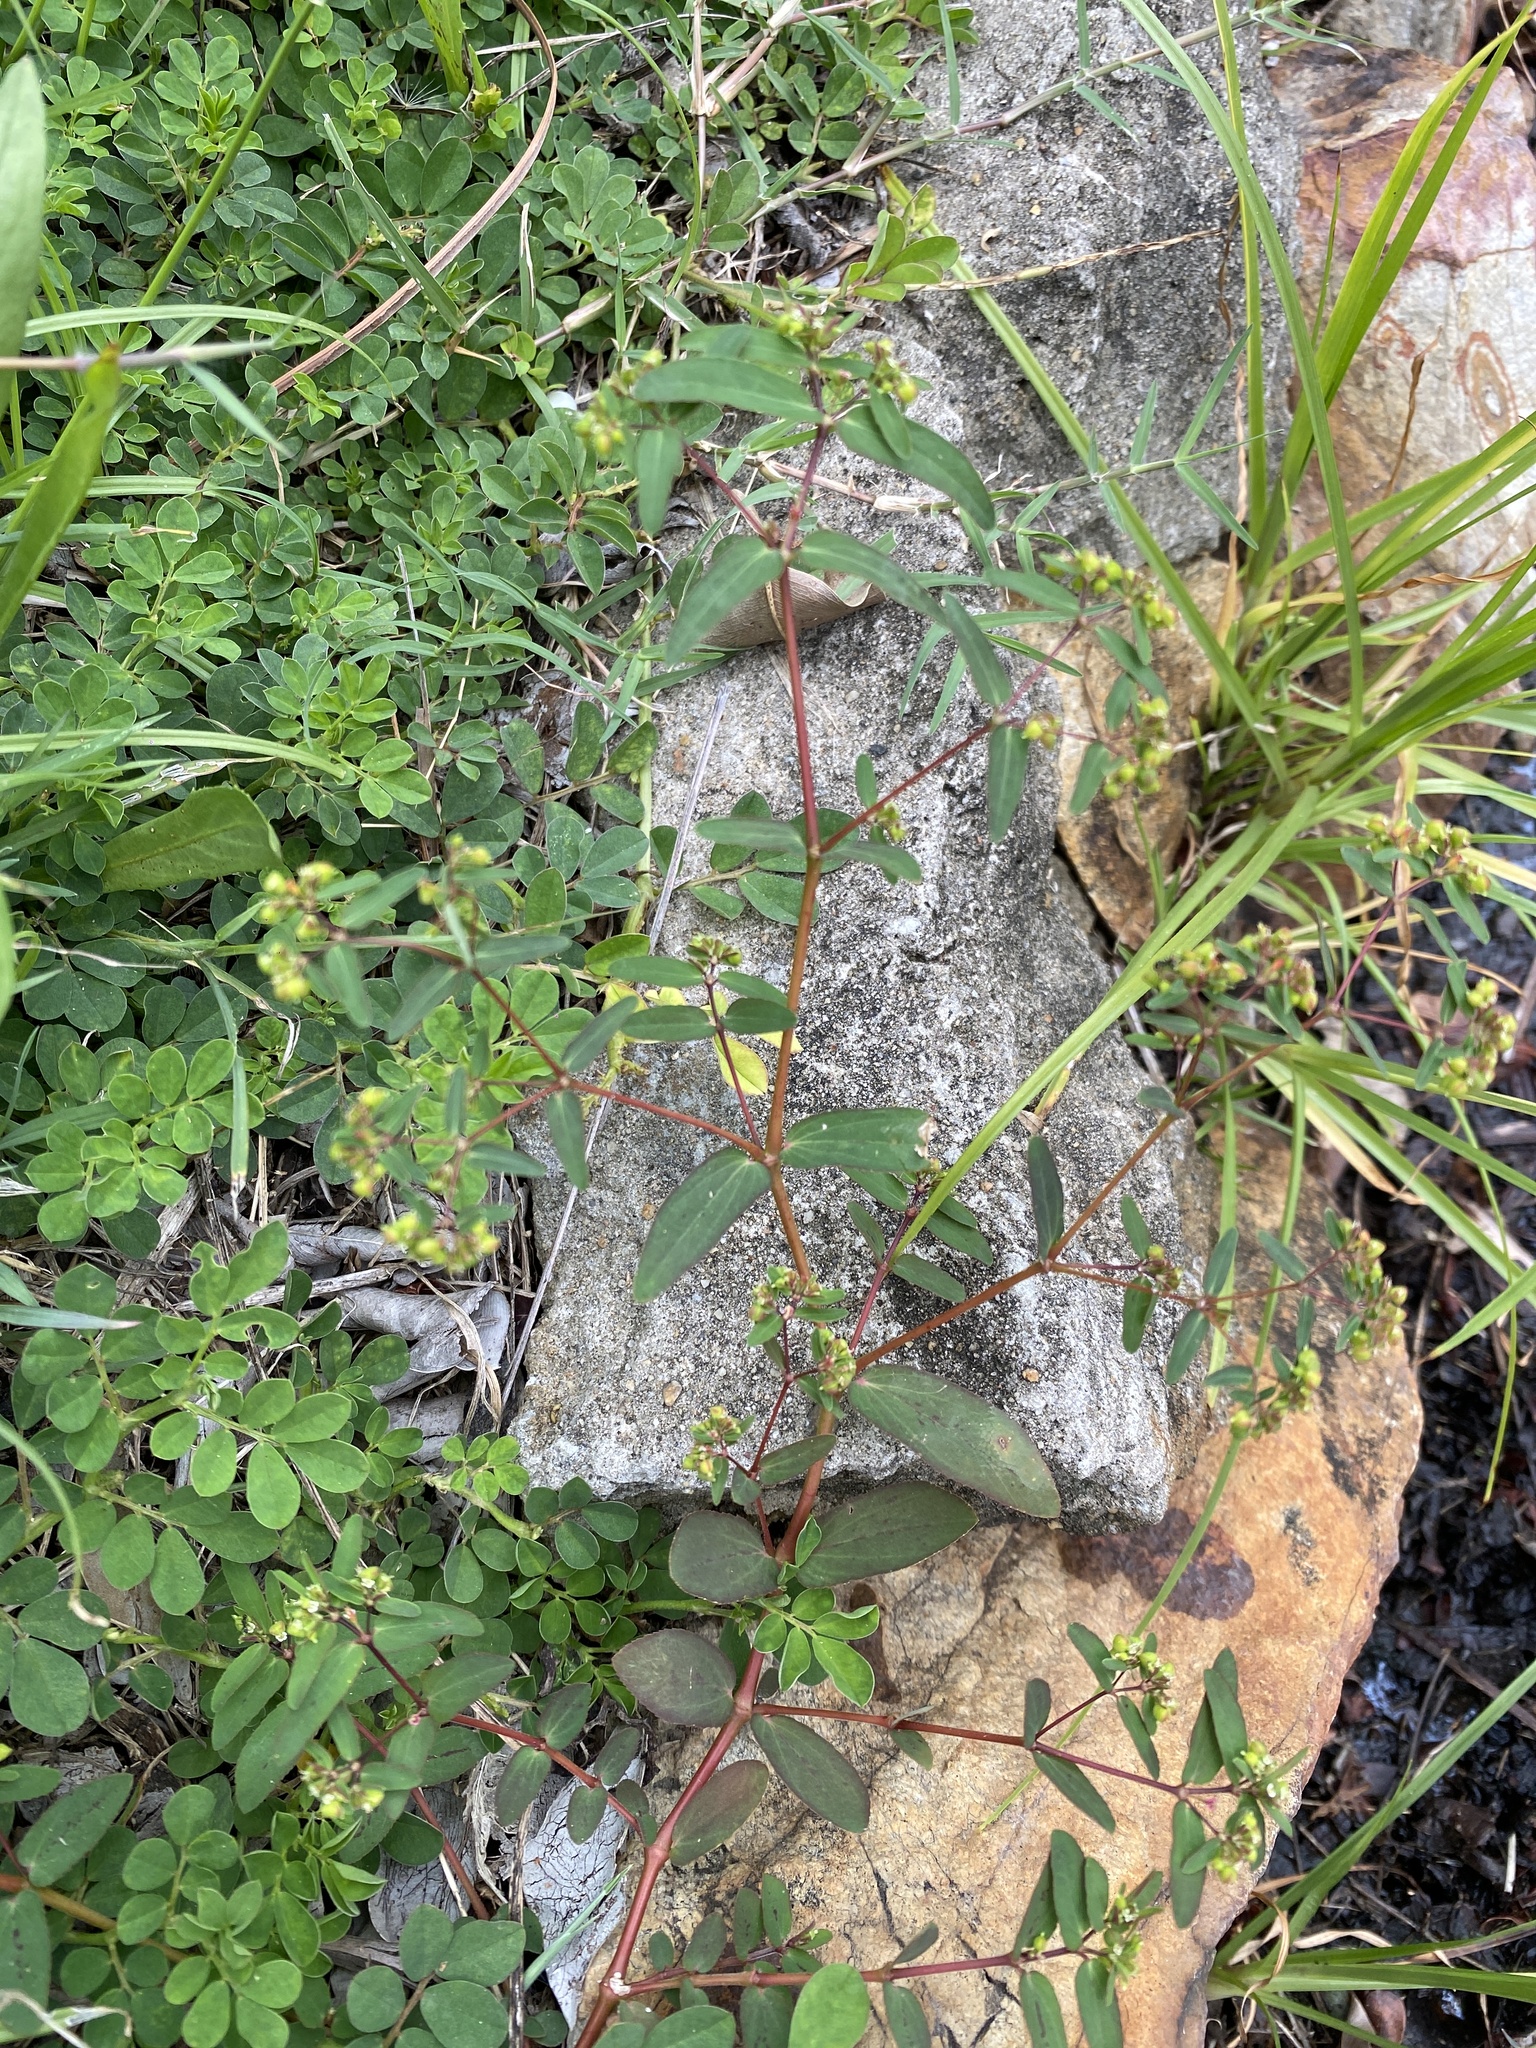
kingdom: Plantae
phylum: Tracheophyta
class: Magnoliopsida
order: Malpighiales
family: Euphorbiaceae
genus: Euphorbia
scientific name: Euphorbia hyssopifolia
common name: Hyssopleaf sandmat
